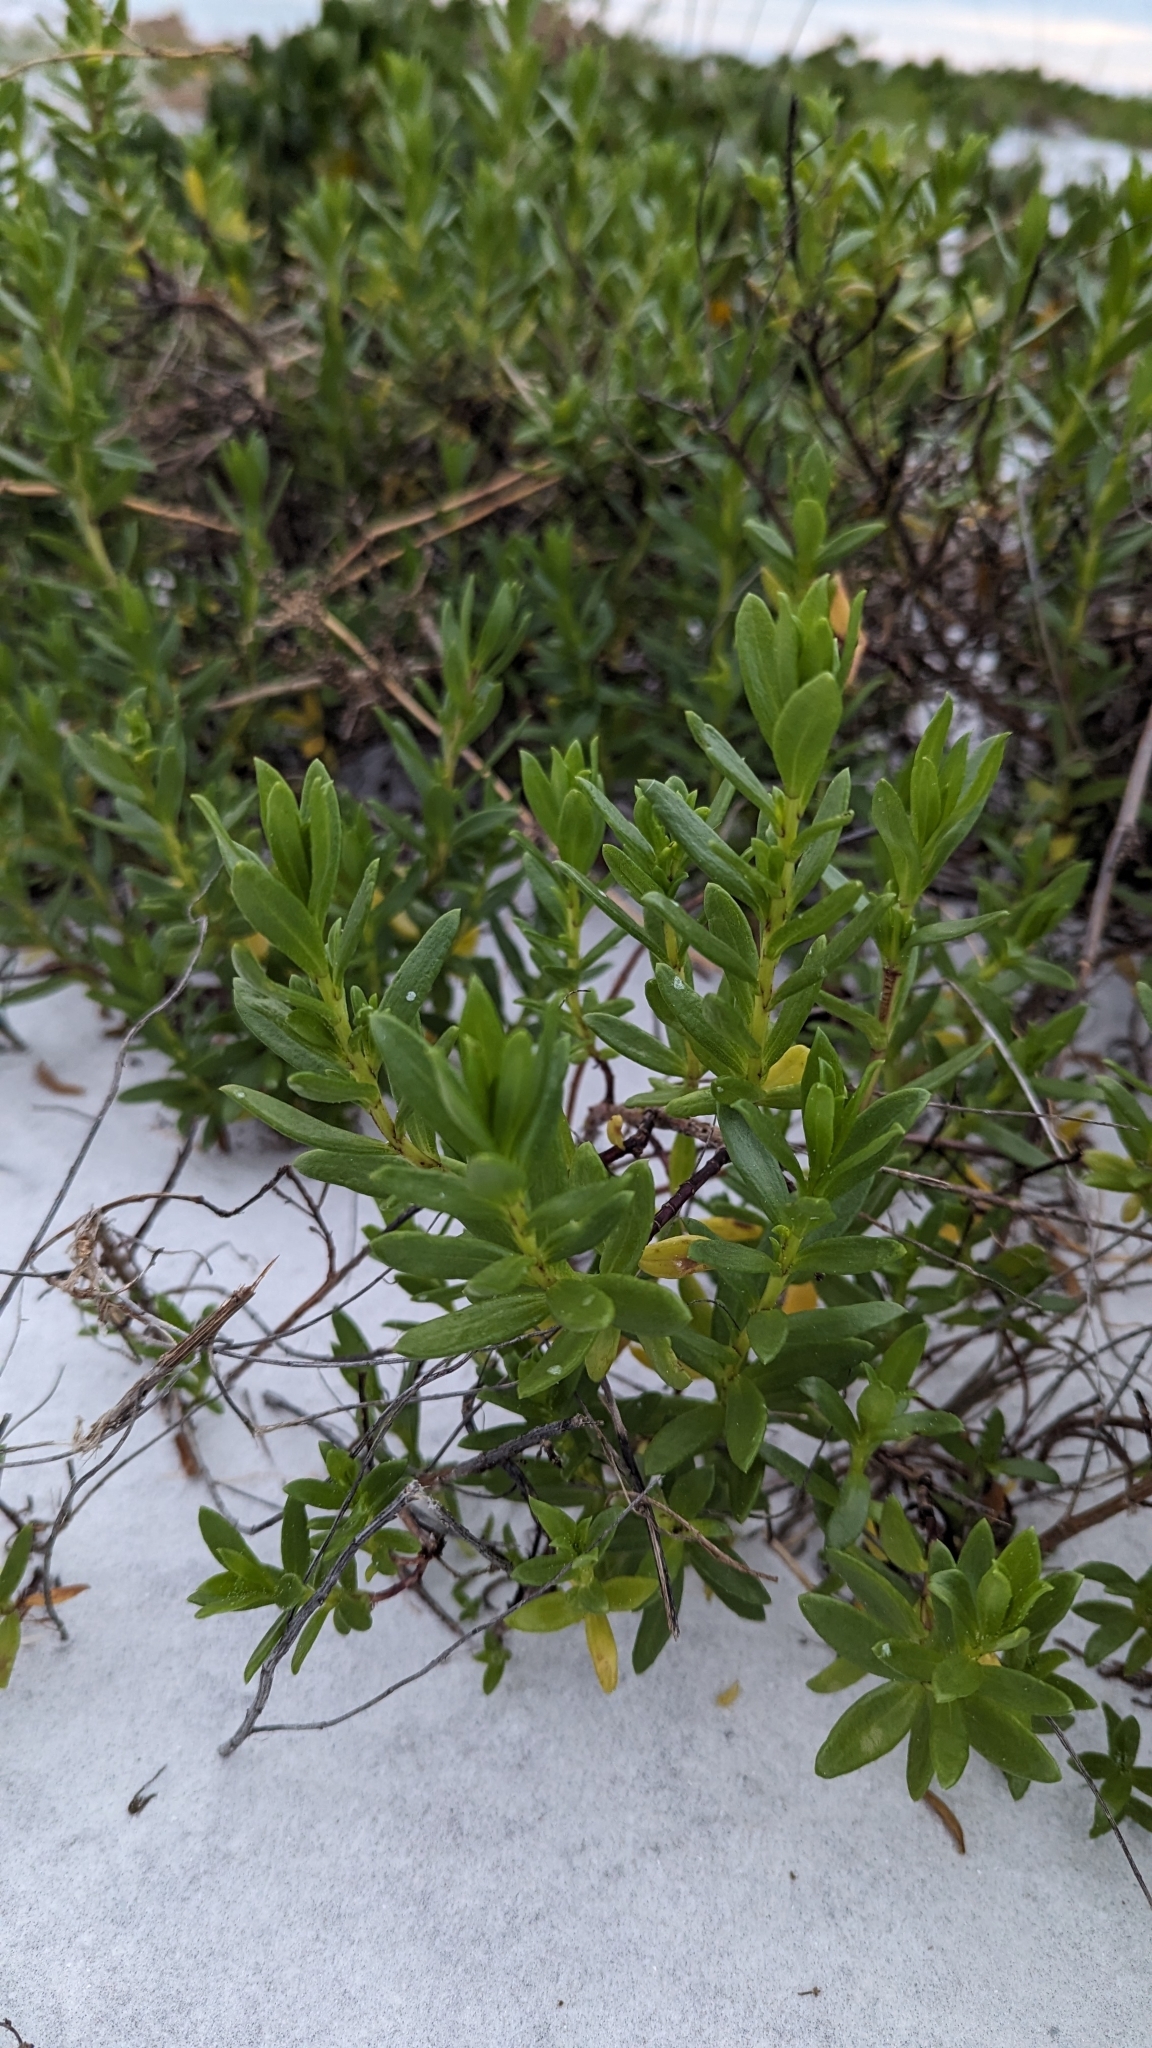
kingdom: Plantae
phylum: Tracheophyta
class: Magnoliopsida
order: Asterales
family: Asteraceae
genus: Iva
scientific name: Iva imbricata
